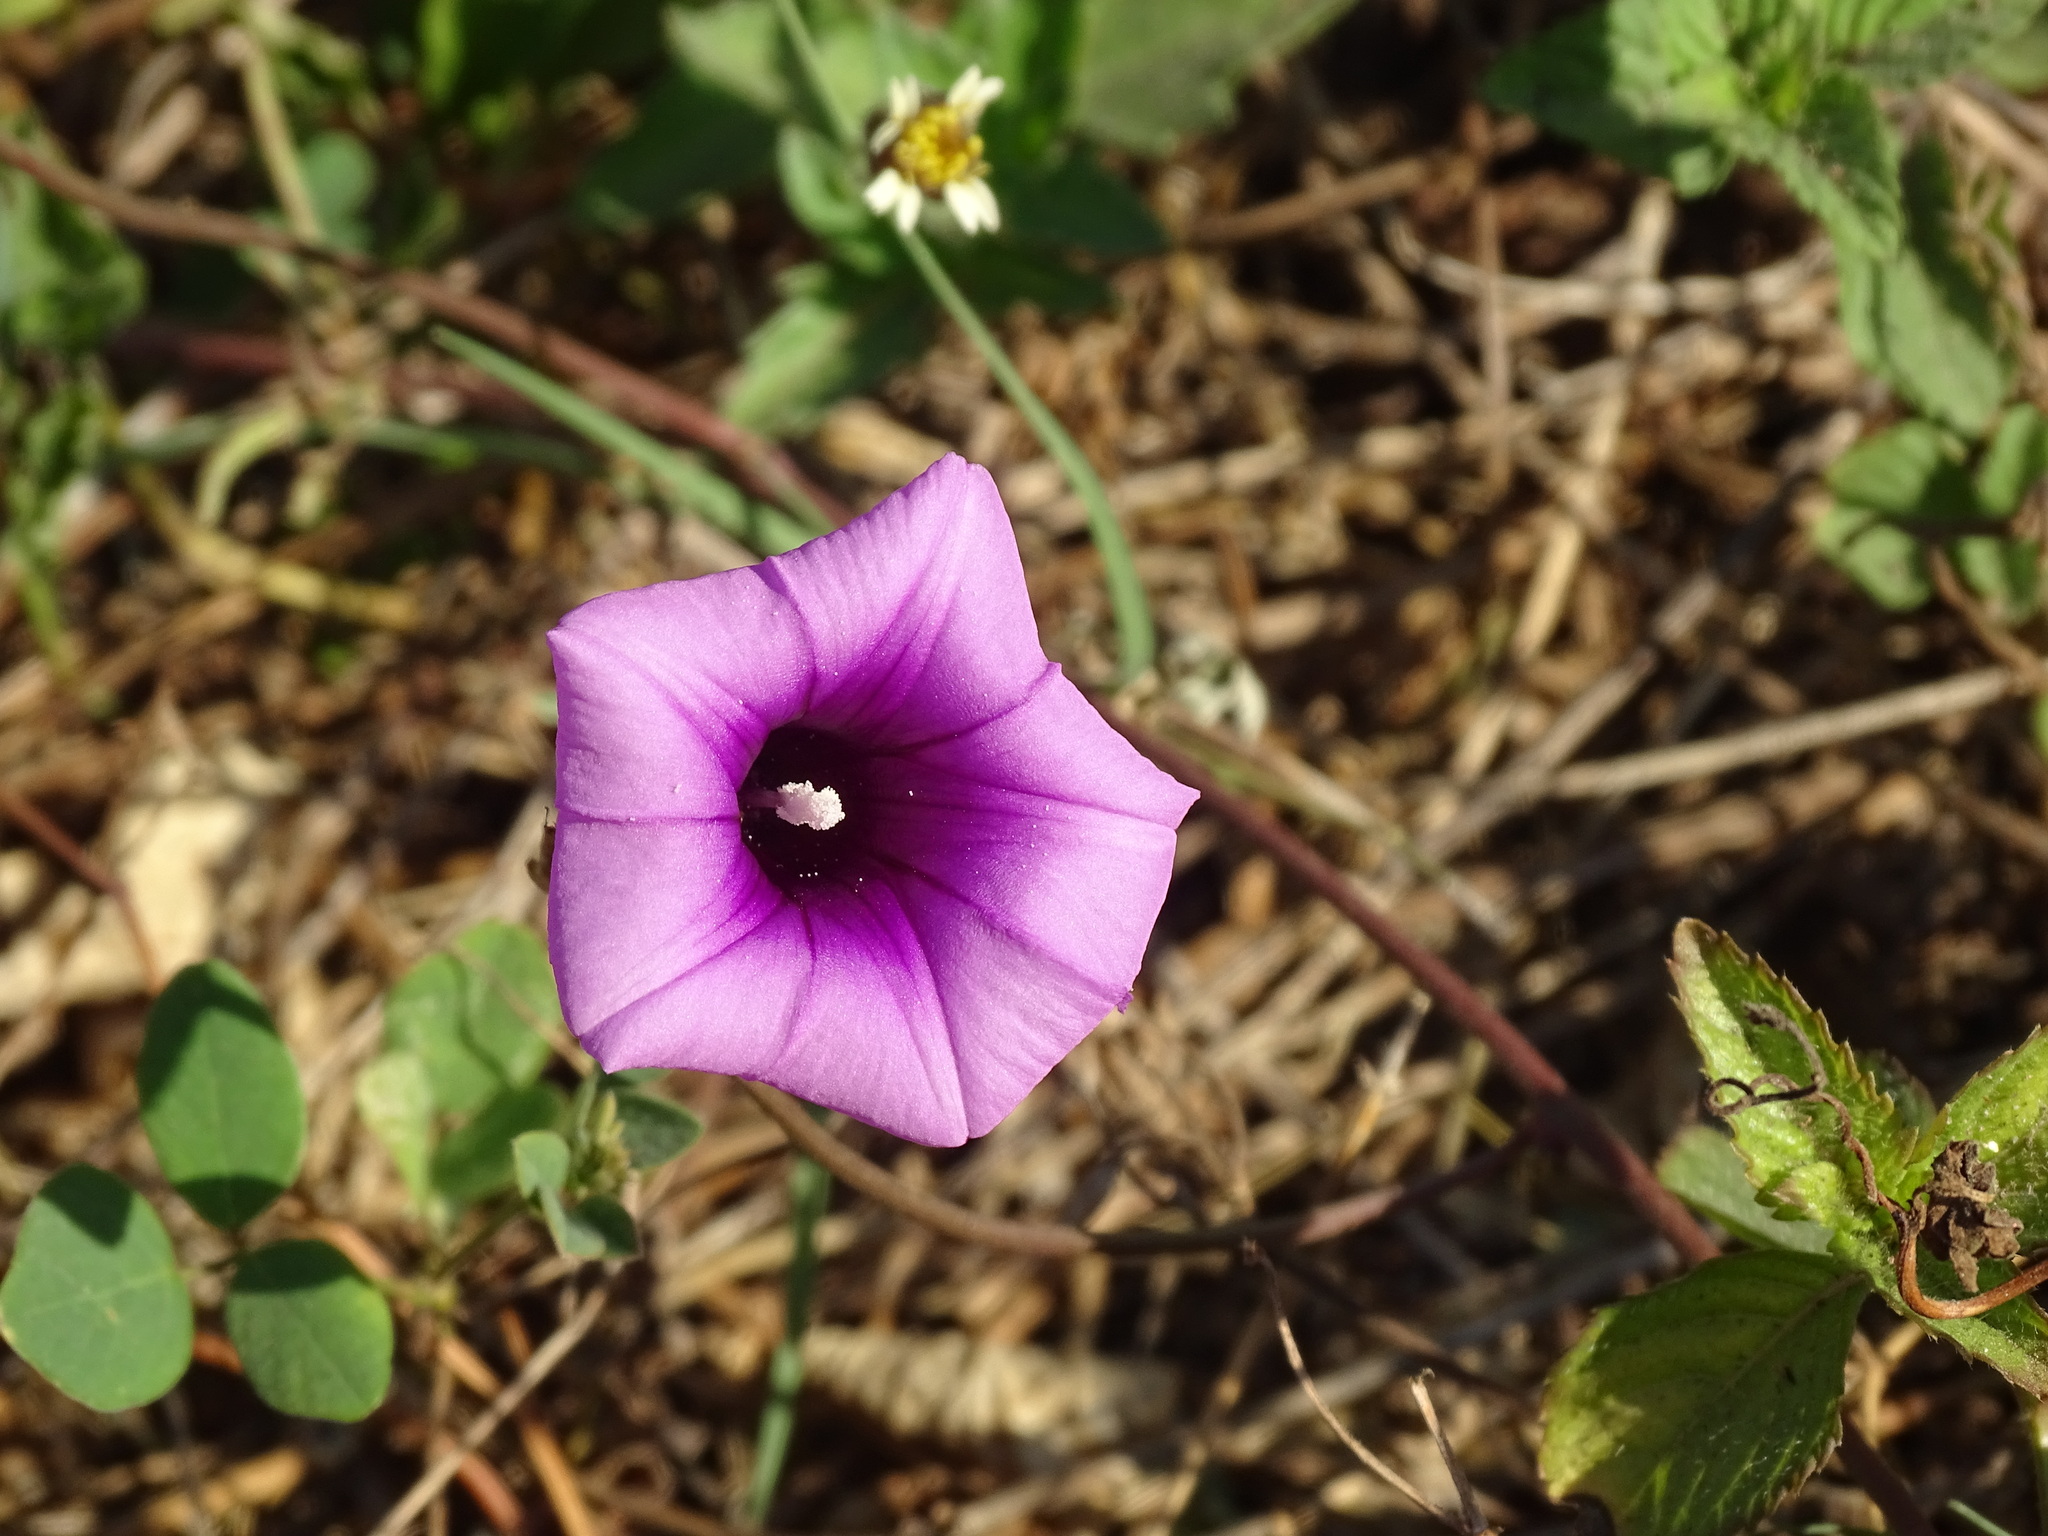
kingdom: Plantae
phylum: Tracheophyta
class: Magnoliopsida
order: Solanales
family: Convolvulaceae
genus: Ipomoea
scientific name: Ipomoea trifida
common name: Cotton morningglory
